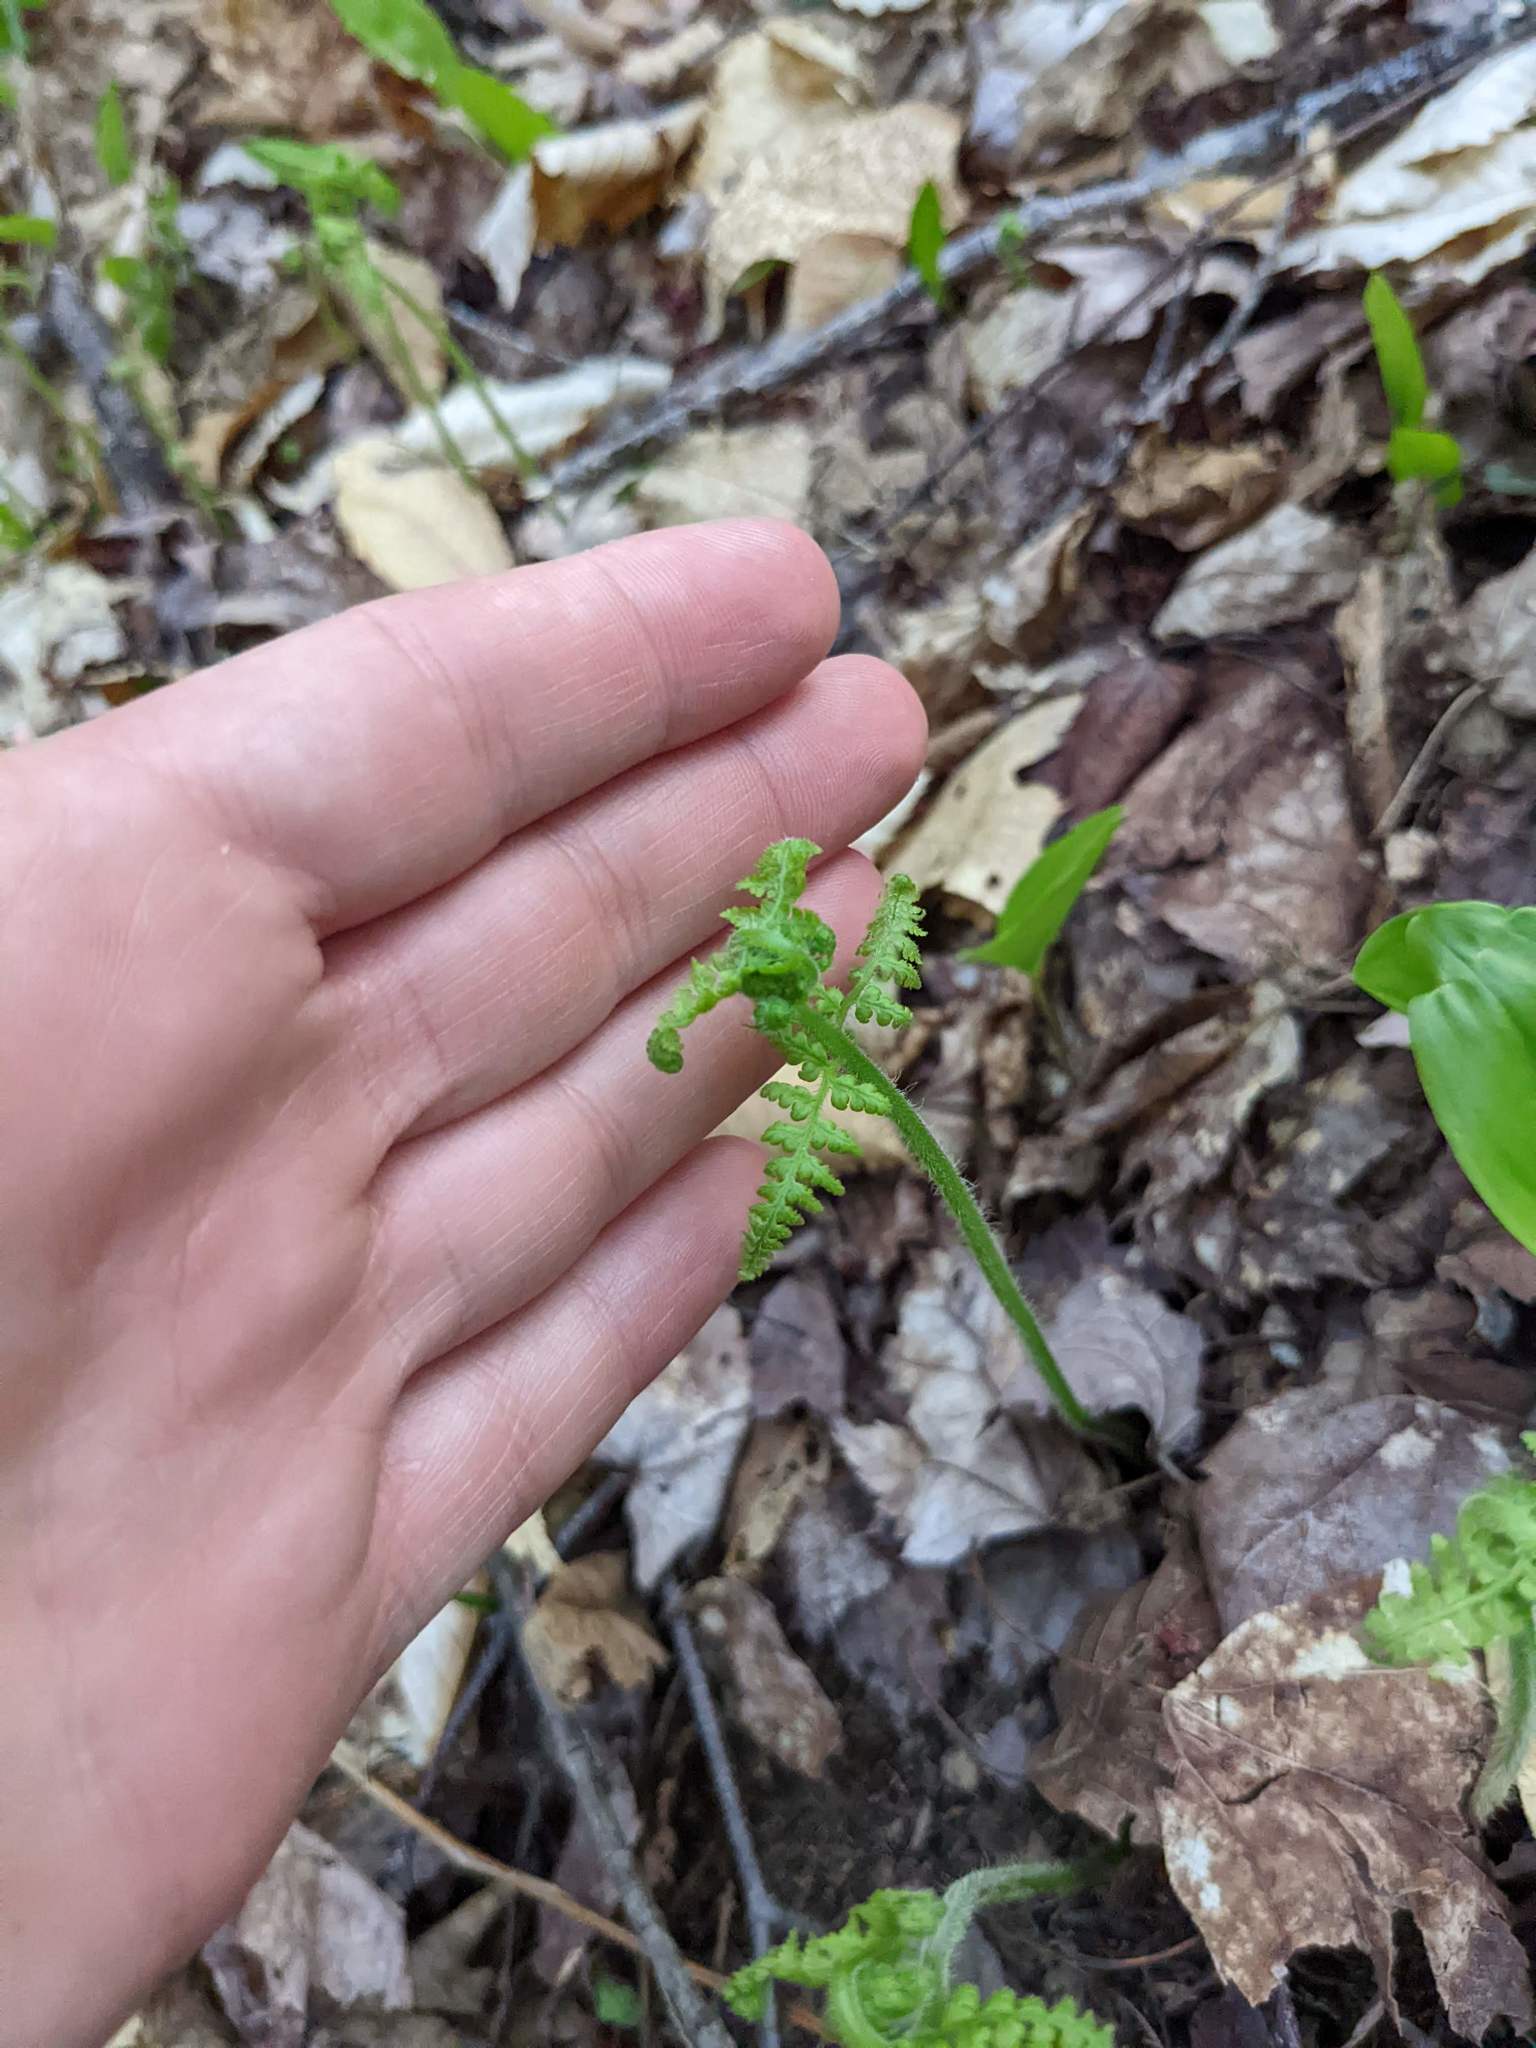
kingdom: Plantae
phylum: Tracheophyta
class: Polypodiopsida
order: Polypodiales
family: Dennstaedtiaceae
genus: Sitobolium
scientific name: Sitobolium punctilobum
